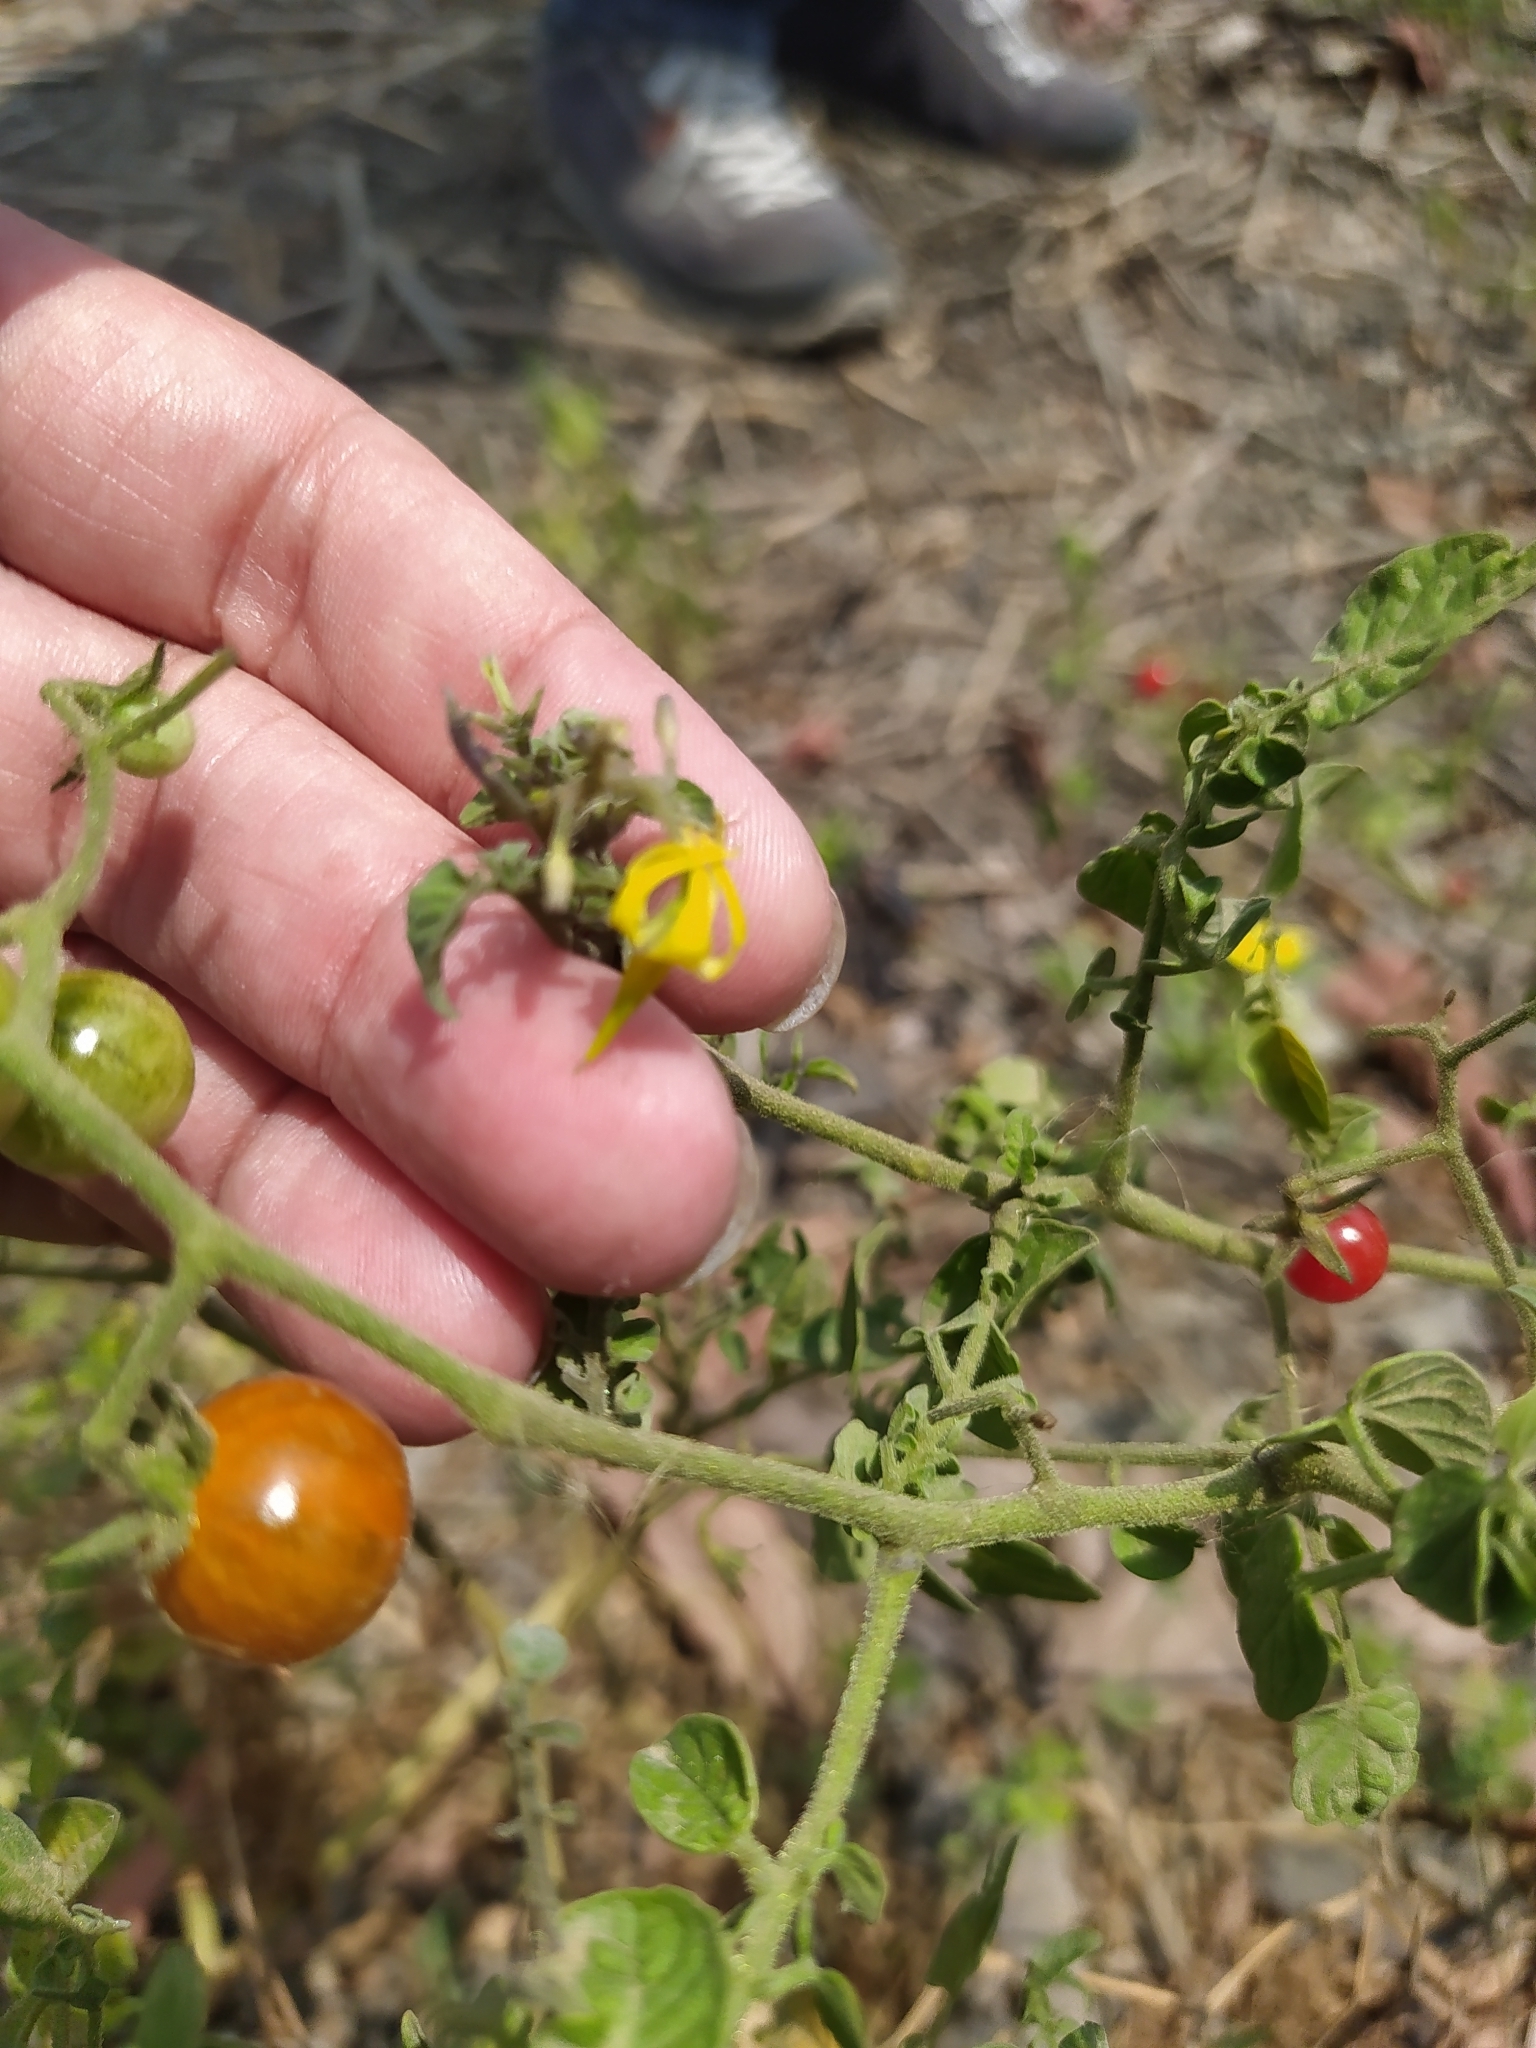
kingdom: Plantae
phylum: Tracheophyta
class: Magnoliopsida
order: Solanales
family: Solanaceae
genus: Solanum
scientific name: Solanum lycopersicum
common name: Garden tomato
